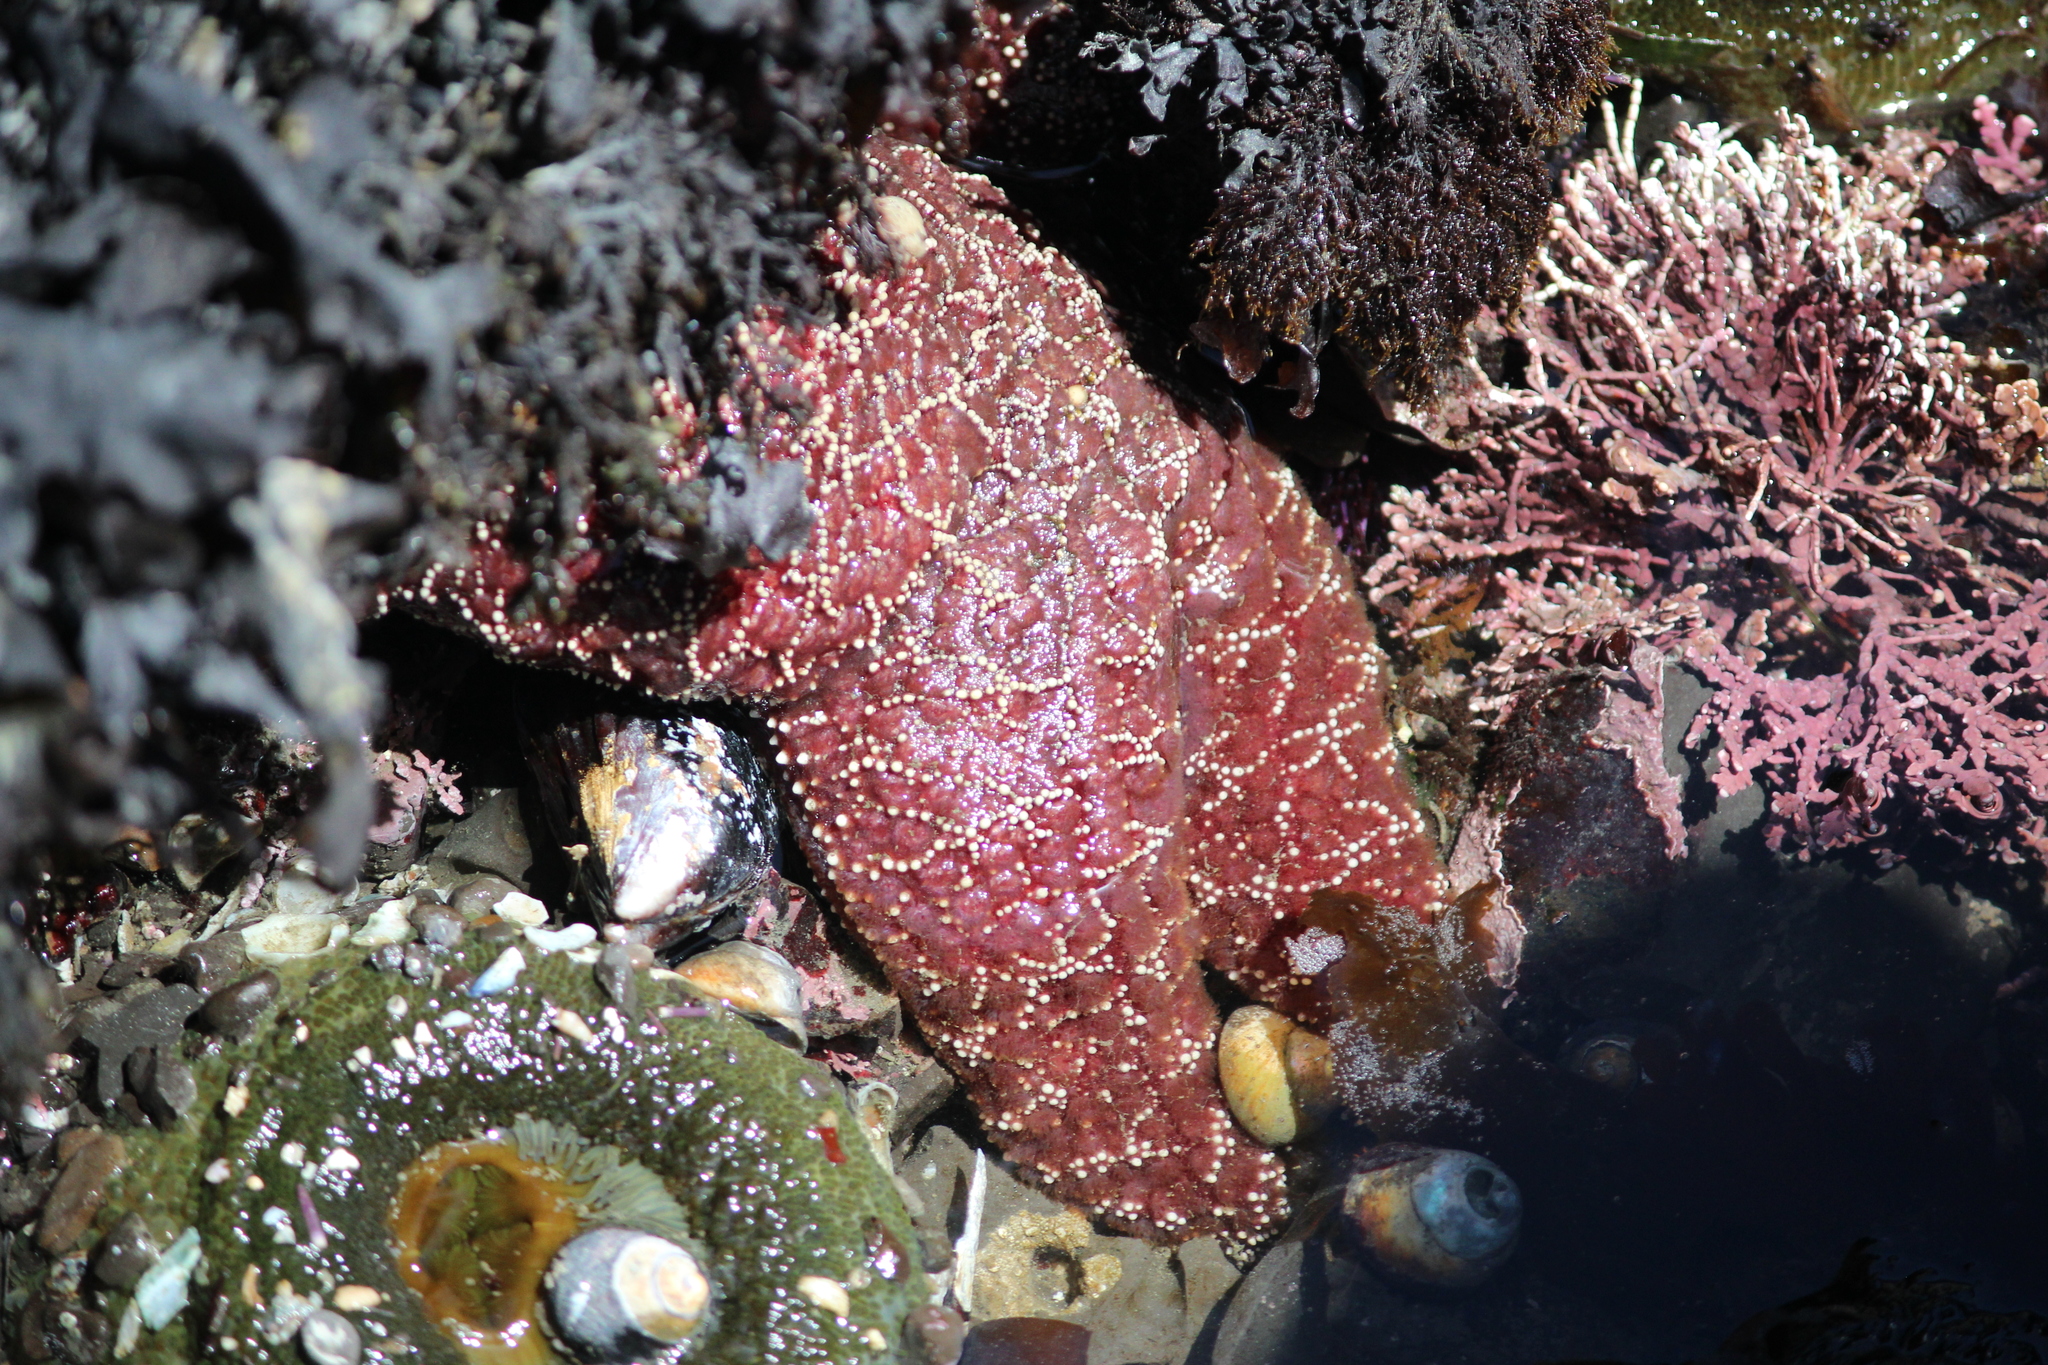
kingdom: Animalia
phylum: Echinodermata
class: Asteroidea
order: Forcipulatida
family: Asteriidae
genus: Pisaster
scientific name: Pisaster ochraceus
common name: Ochre stars
